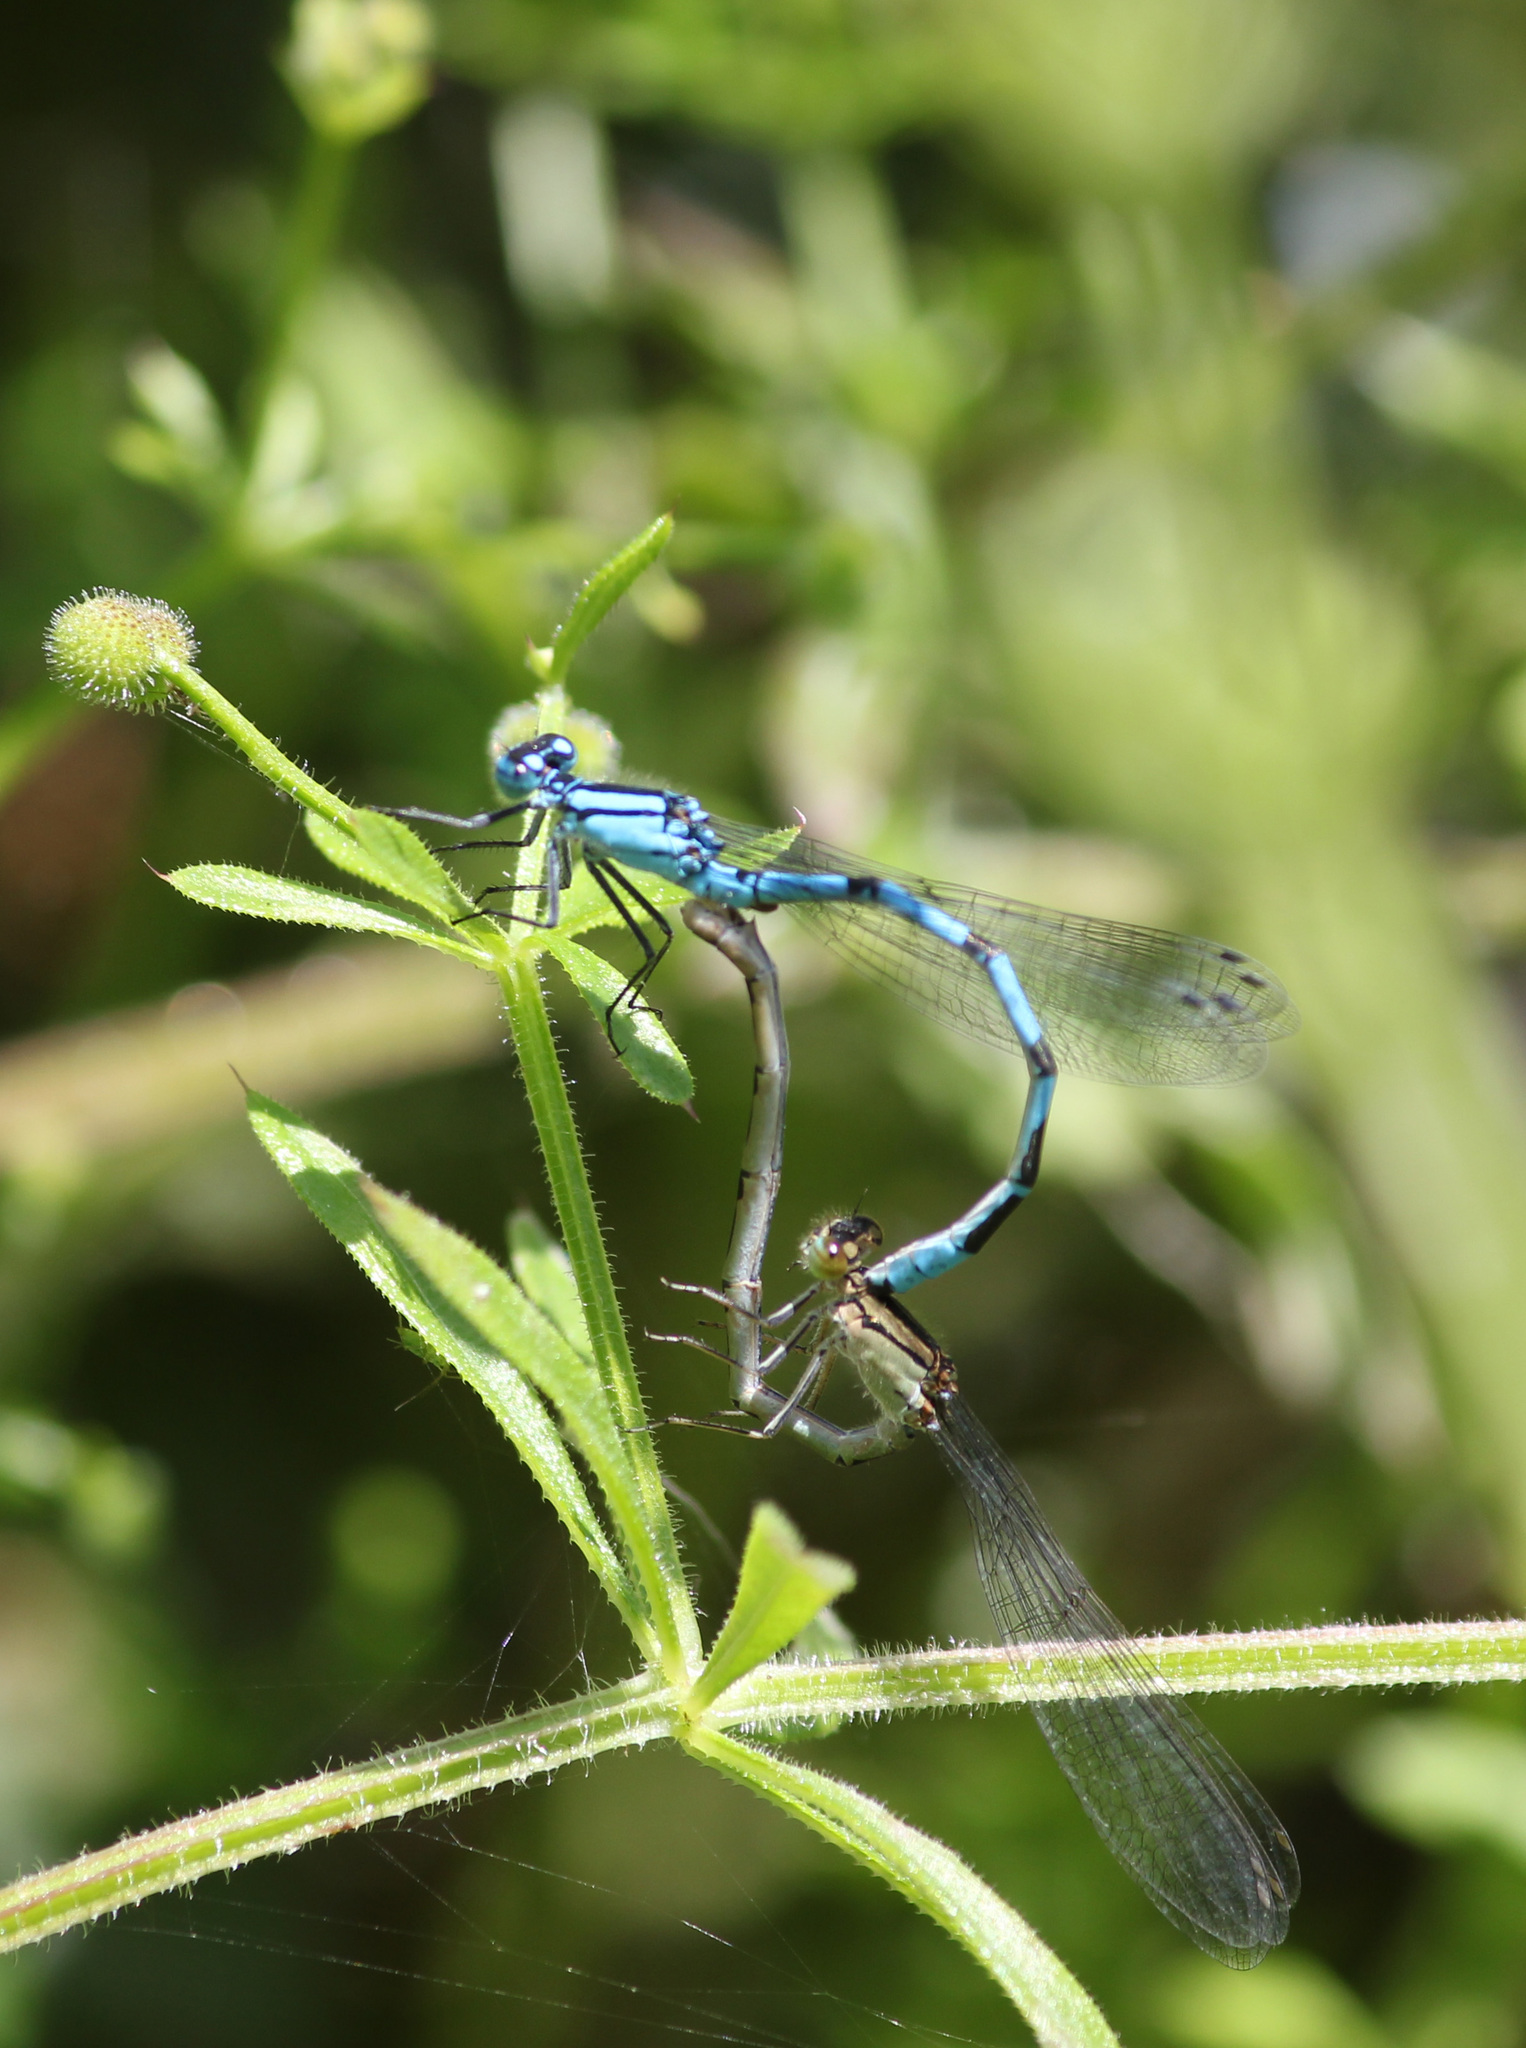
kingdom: Animalia
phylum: Arthropoda
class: Insecta
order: Odonata
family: Coenagrionidae
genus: Enallagma
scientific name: Enallagma cyathigerum
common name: Common blue damselfly
